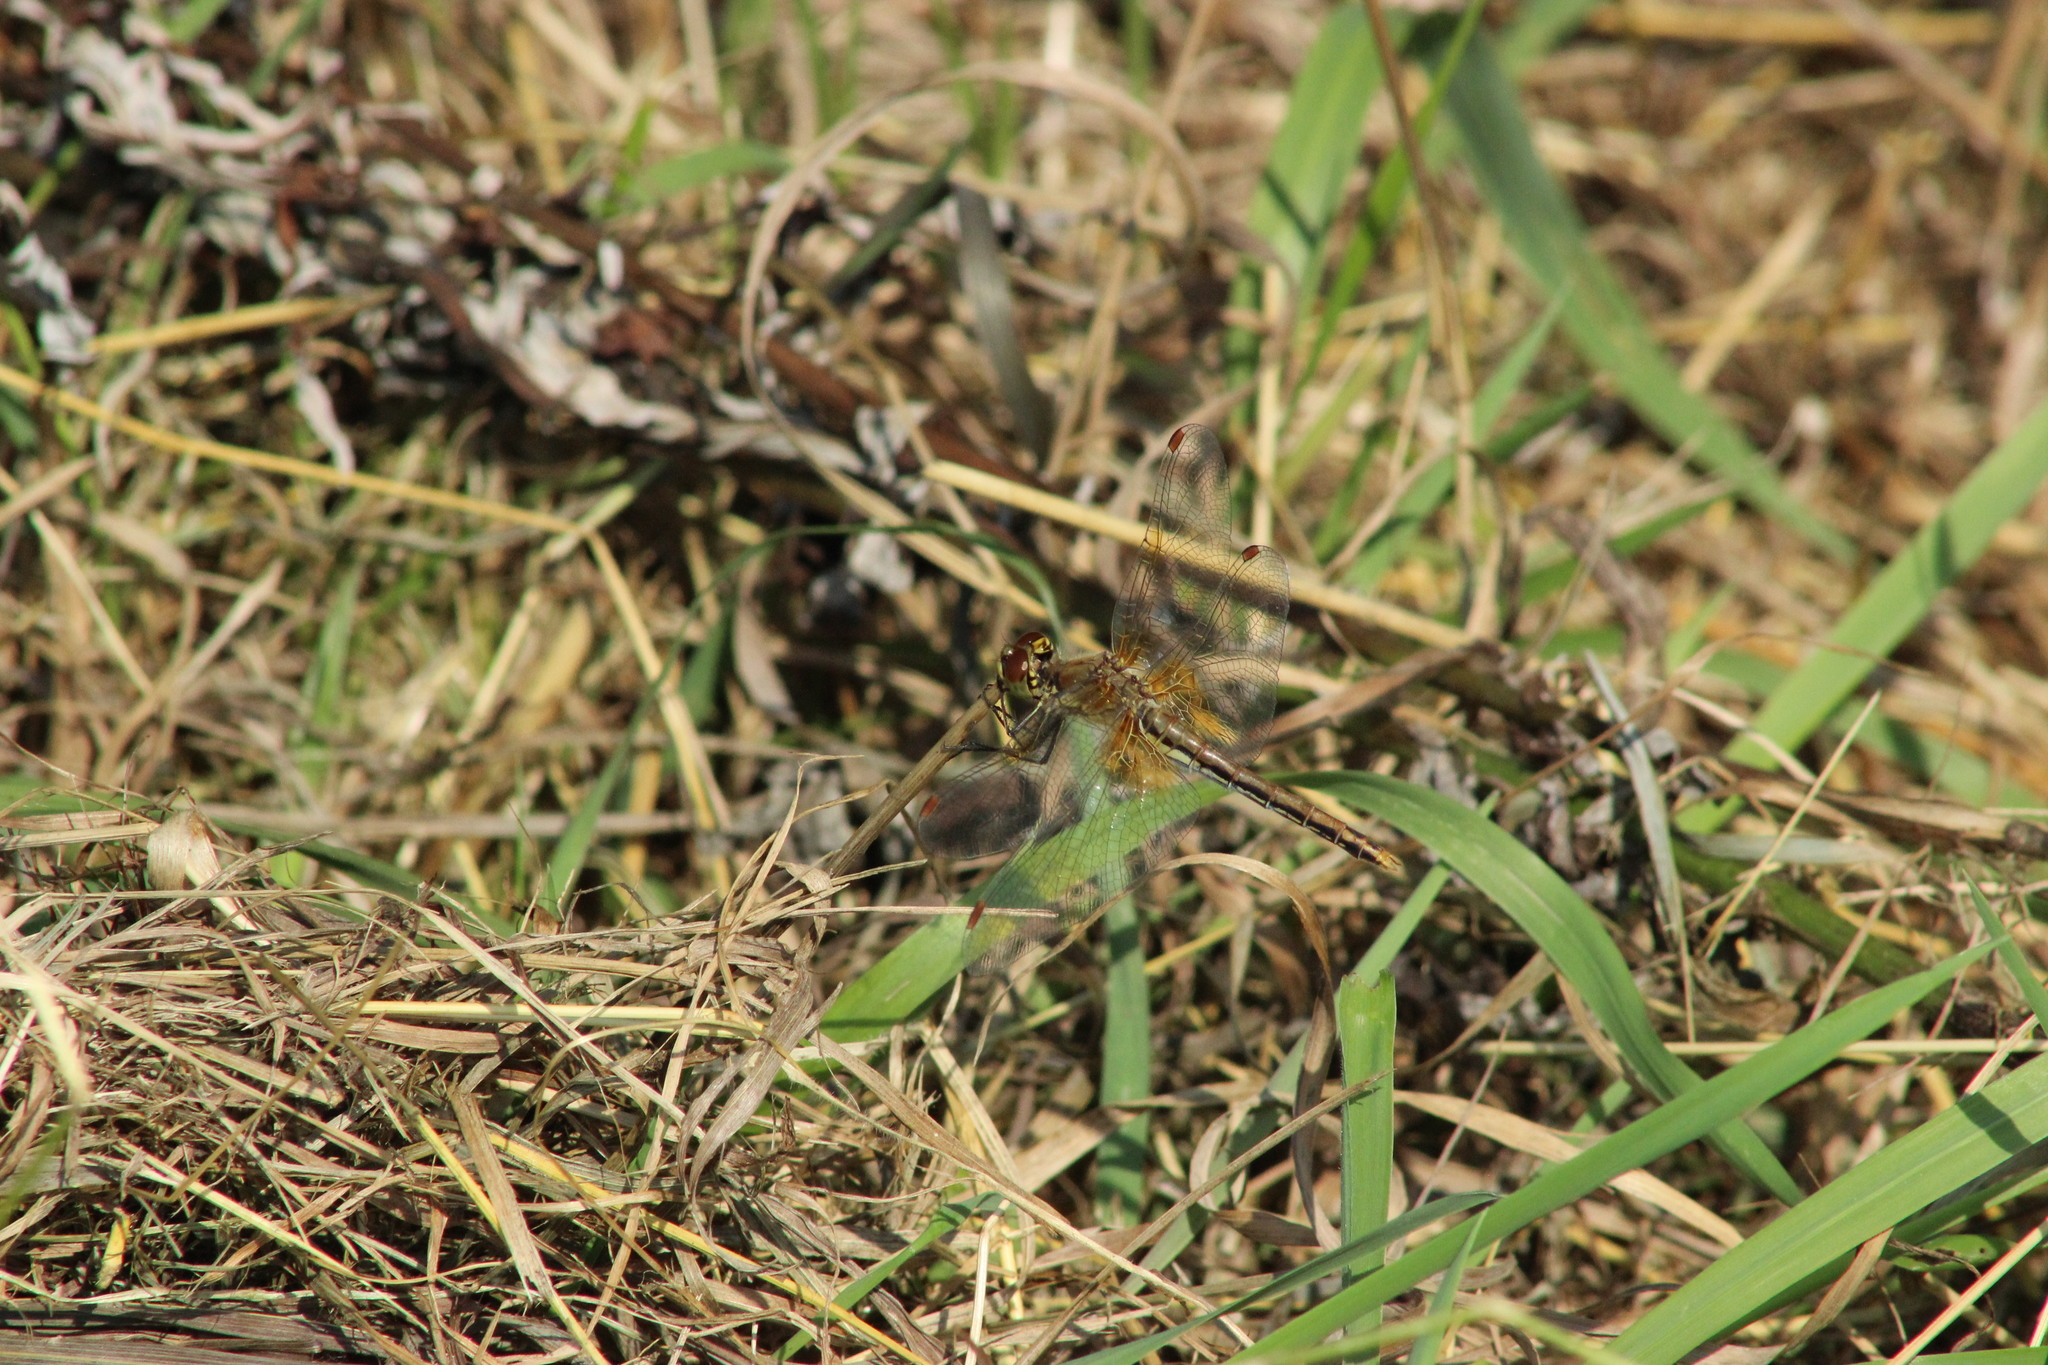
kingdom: Animalia
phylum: Arthropoda
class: Insecta
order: Odonata
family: Libellulidae
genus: Sympetrum
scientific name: Sympetrum flaveolum
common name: Yellow-winged darter
